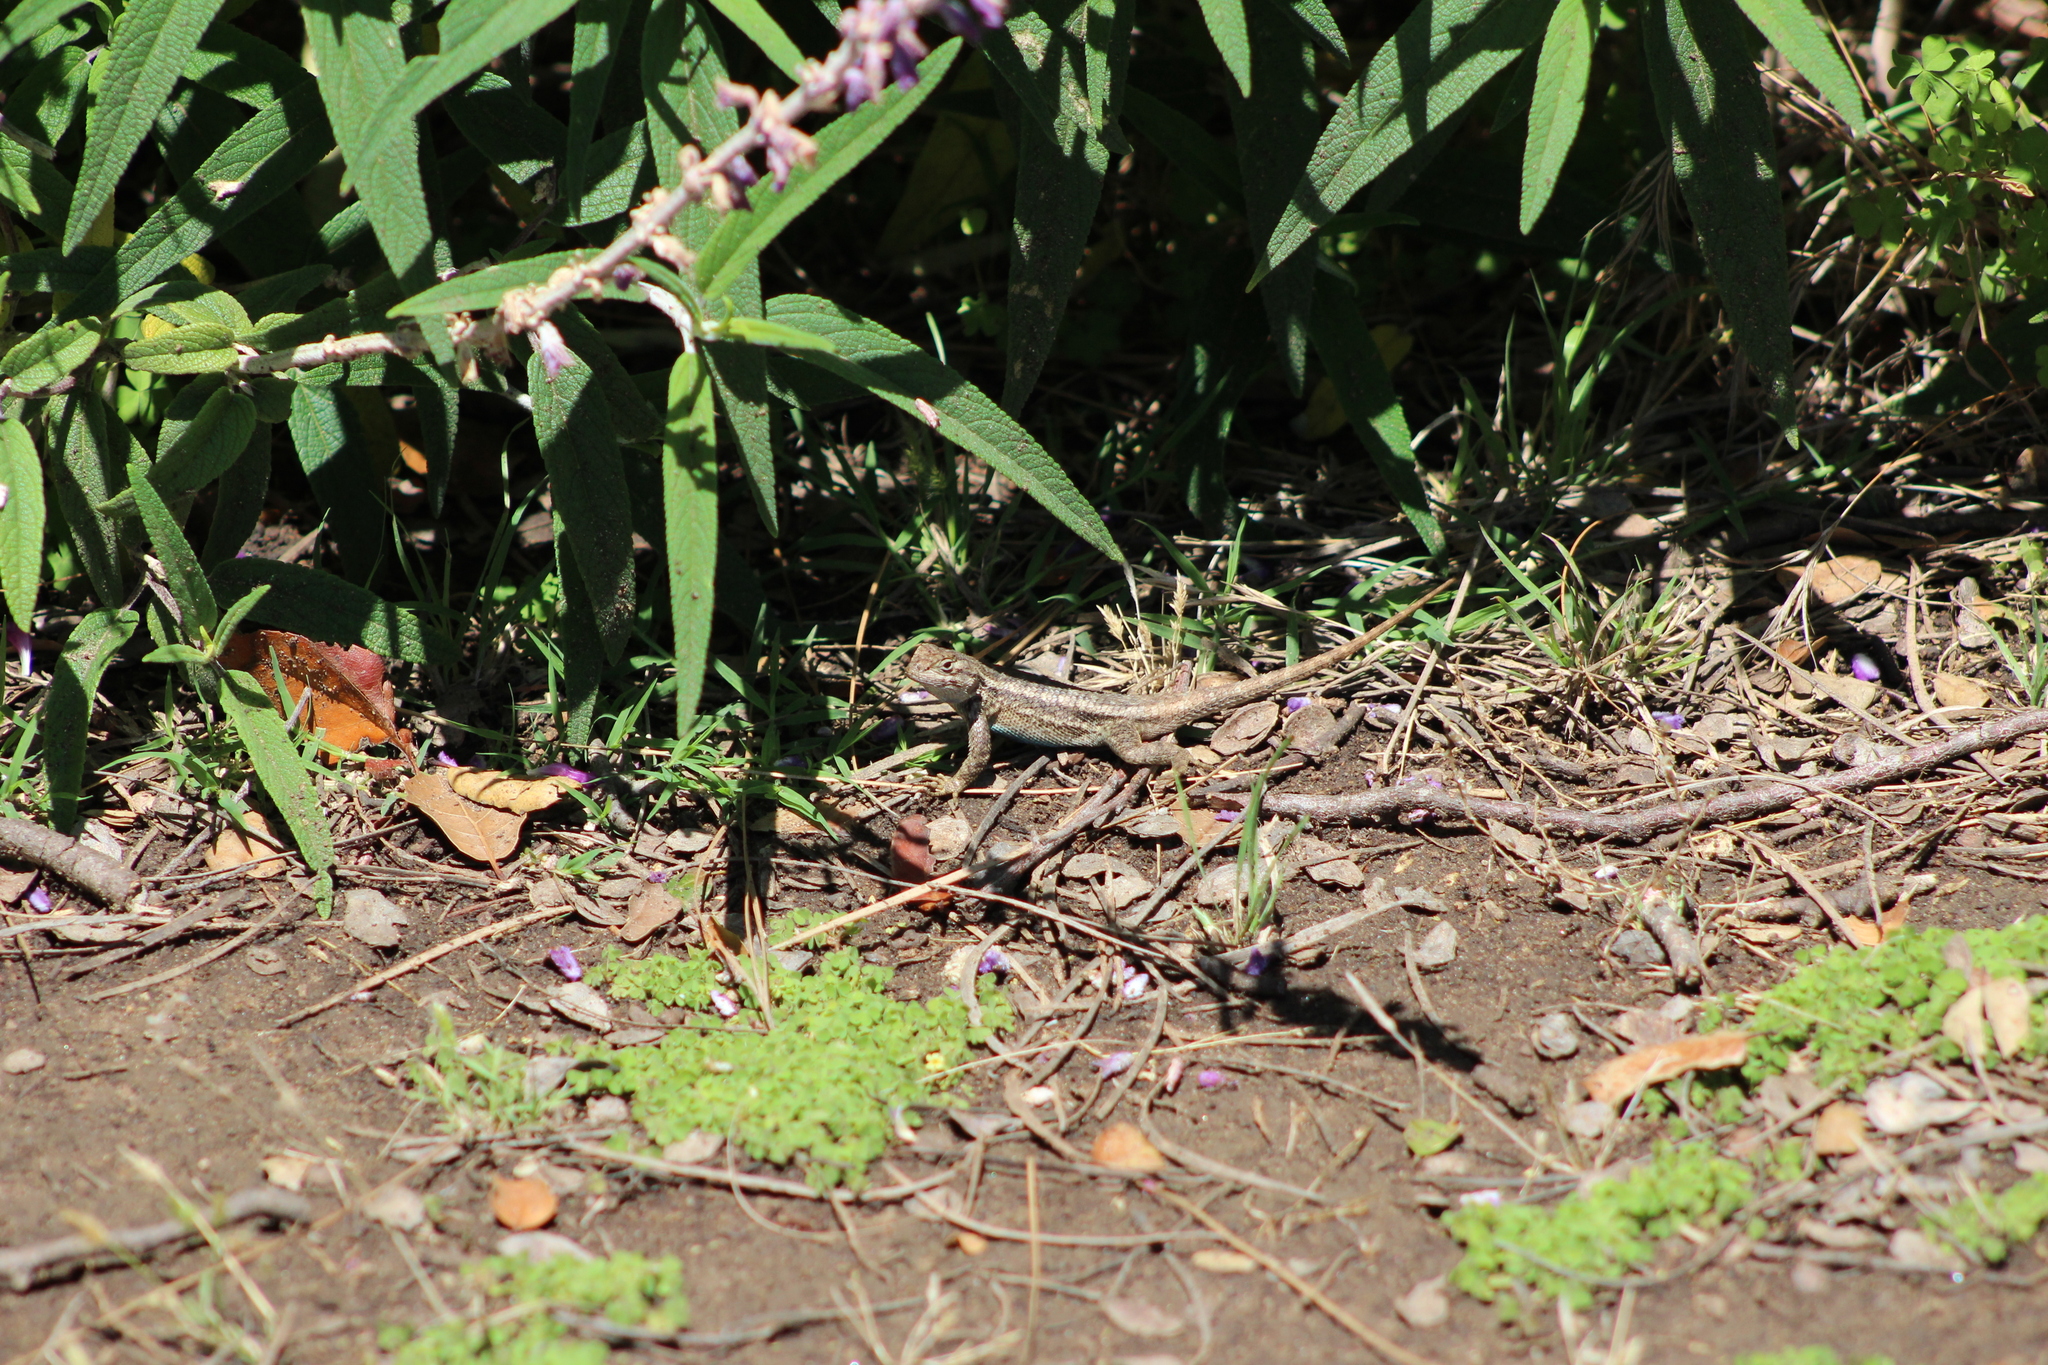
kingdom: Animalia
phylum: Chordata
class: Squamata
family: Phrynosomatidae
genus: Sceloporus
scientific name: Sceloporus occidentalis
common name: Western fence lizard
